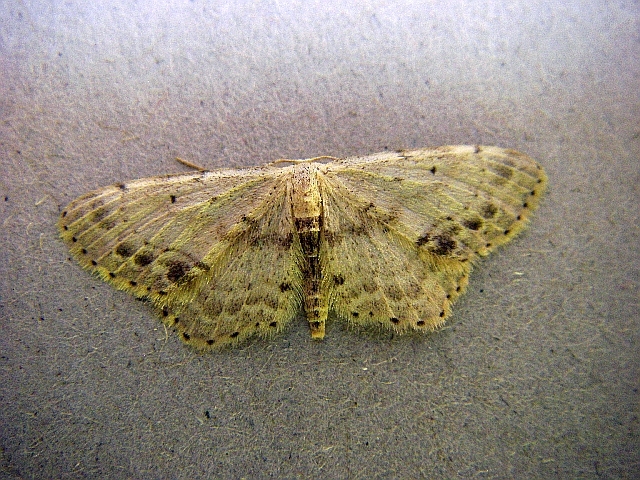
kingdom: Animalia
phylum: Arthropoda
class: Insecta
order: Lepidoptera
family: Geometridae
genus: Idaea
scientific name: Idaea dimidiata
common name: Single-dotted wave
